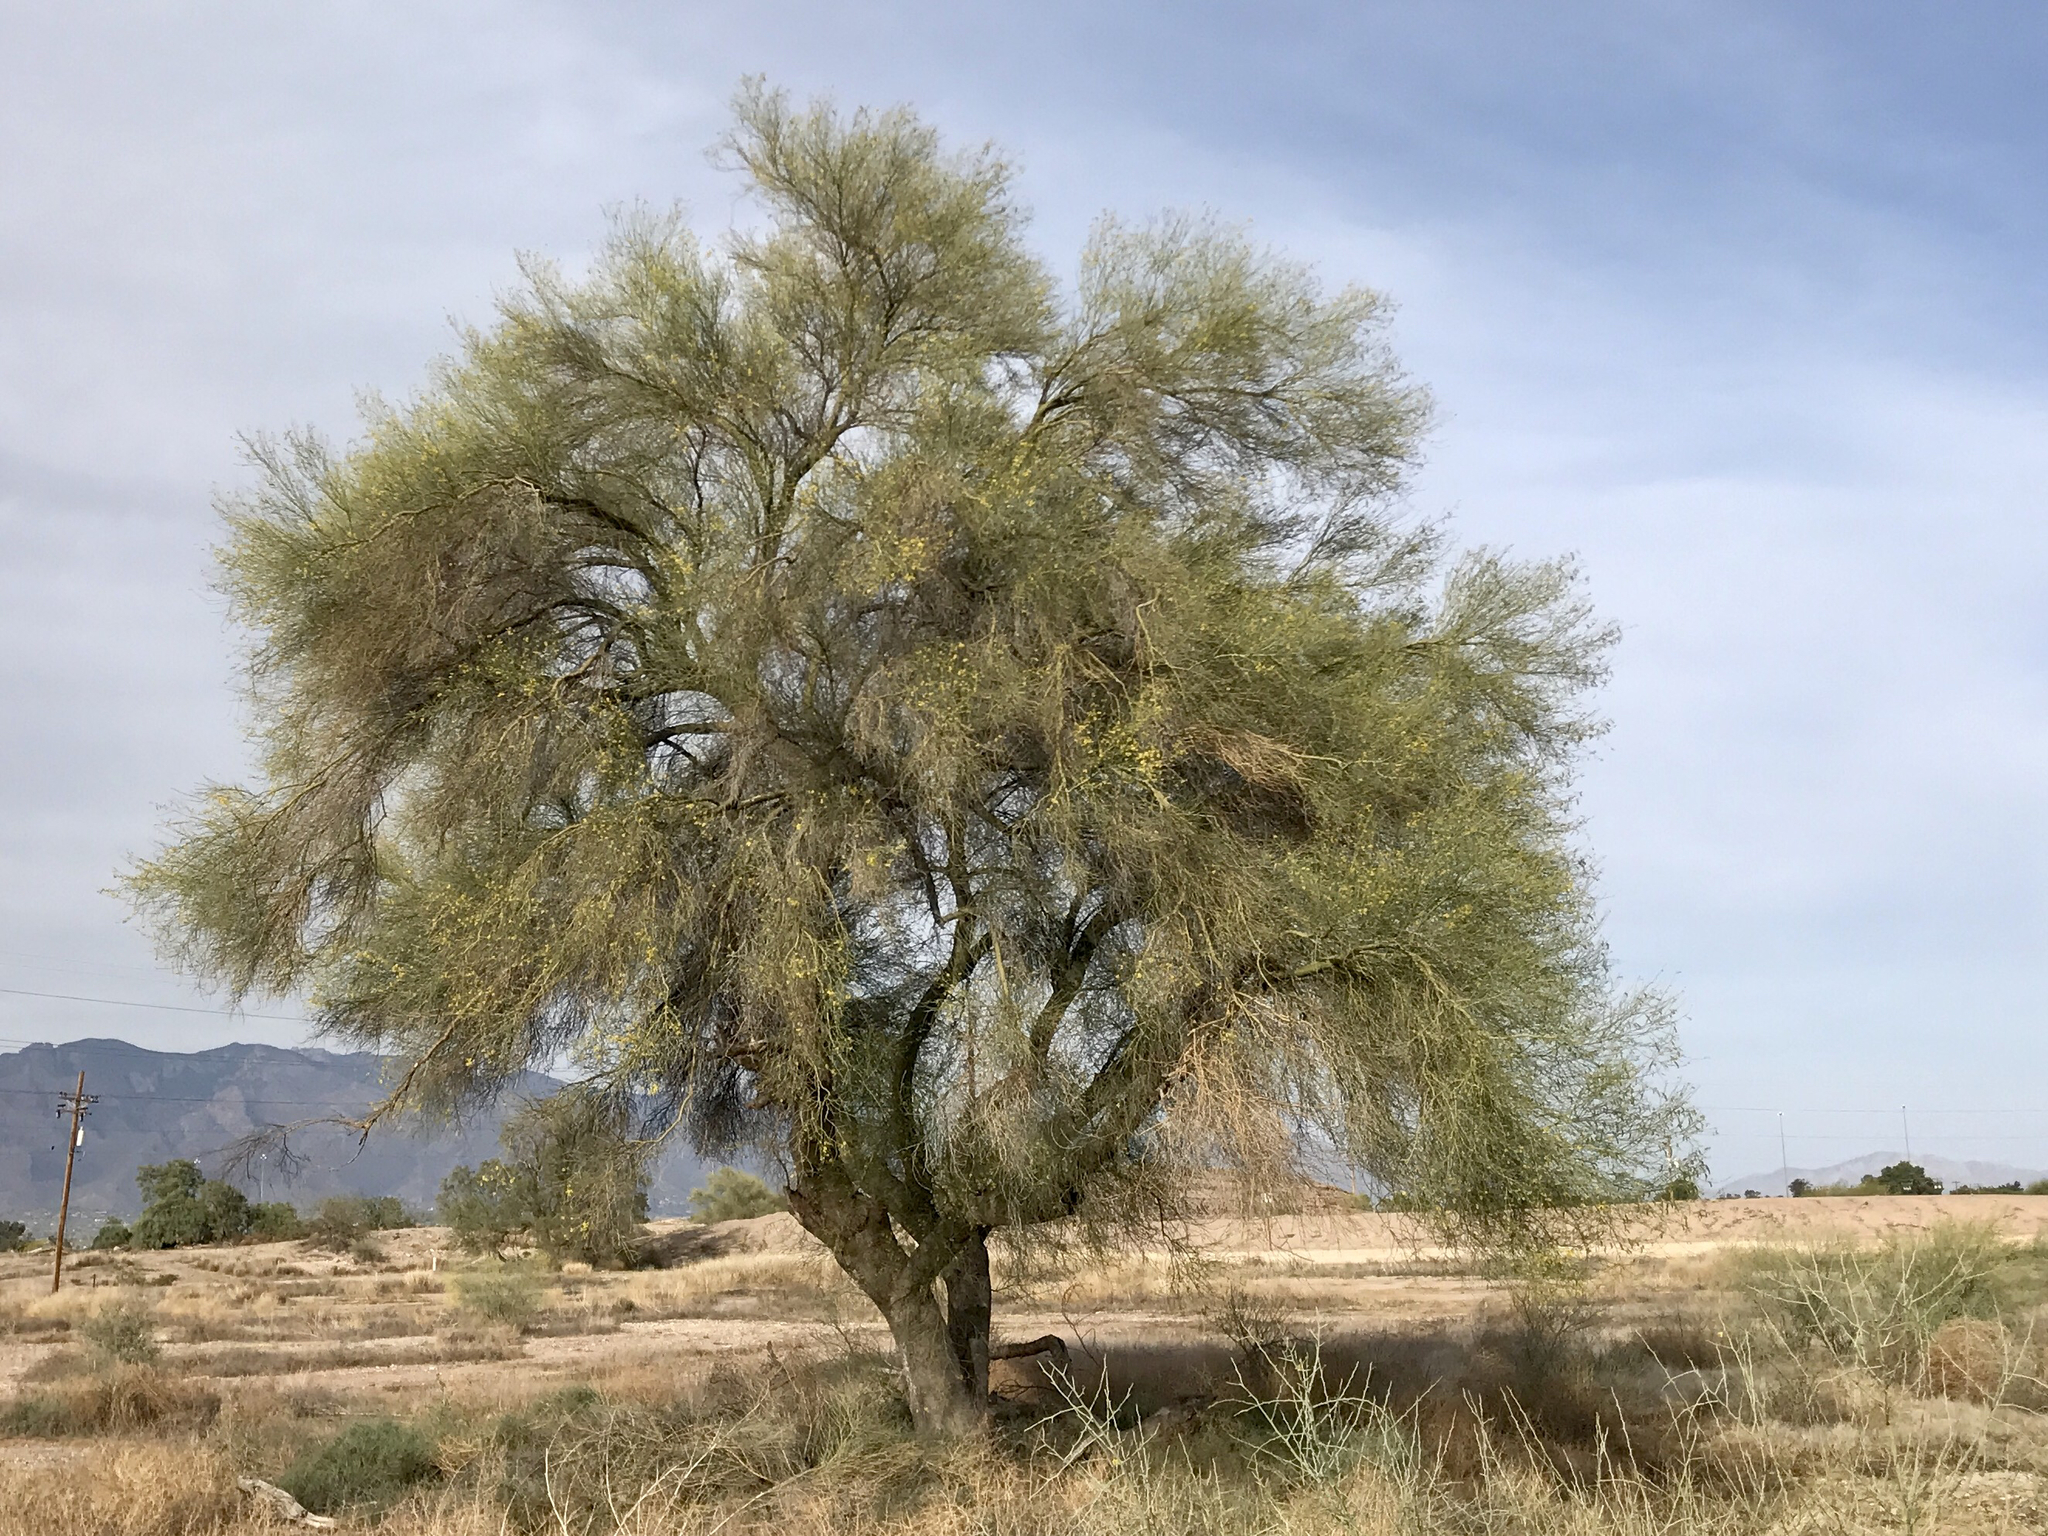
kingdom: Plantae
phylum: Tracheophyta
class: Magnoliopsida
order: Fabales
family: Fabaceae
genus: Parkinsonia
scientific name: Parkinsonia florida
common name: Blue paloverde
